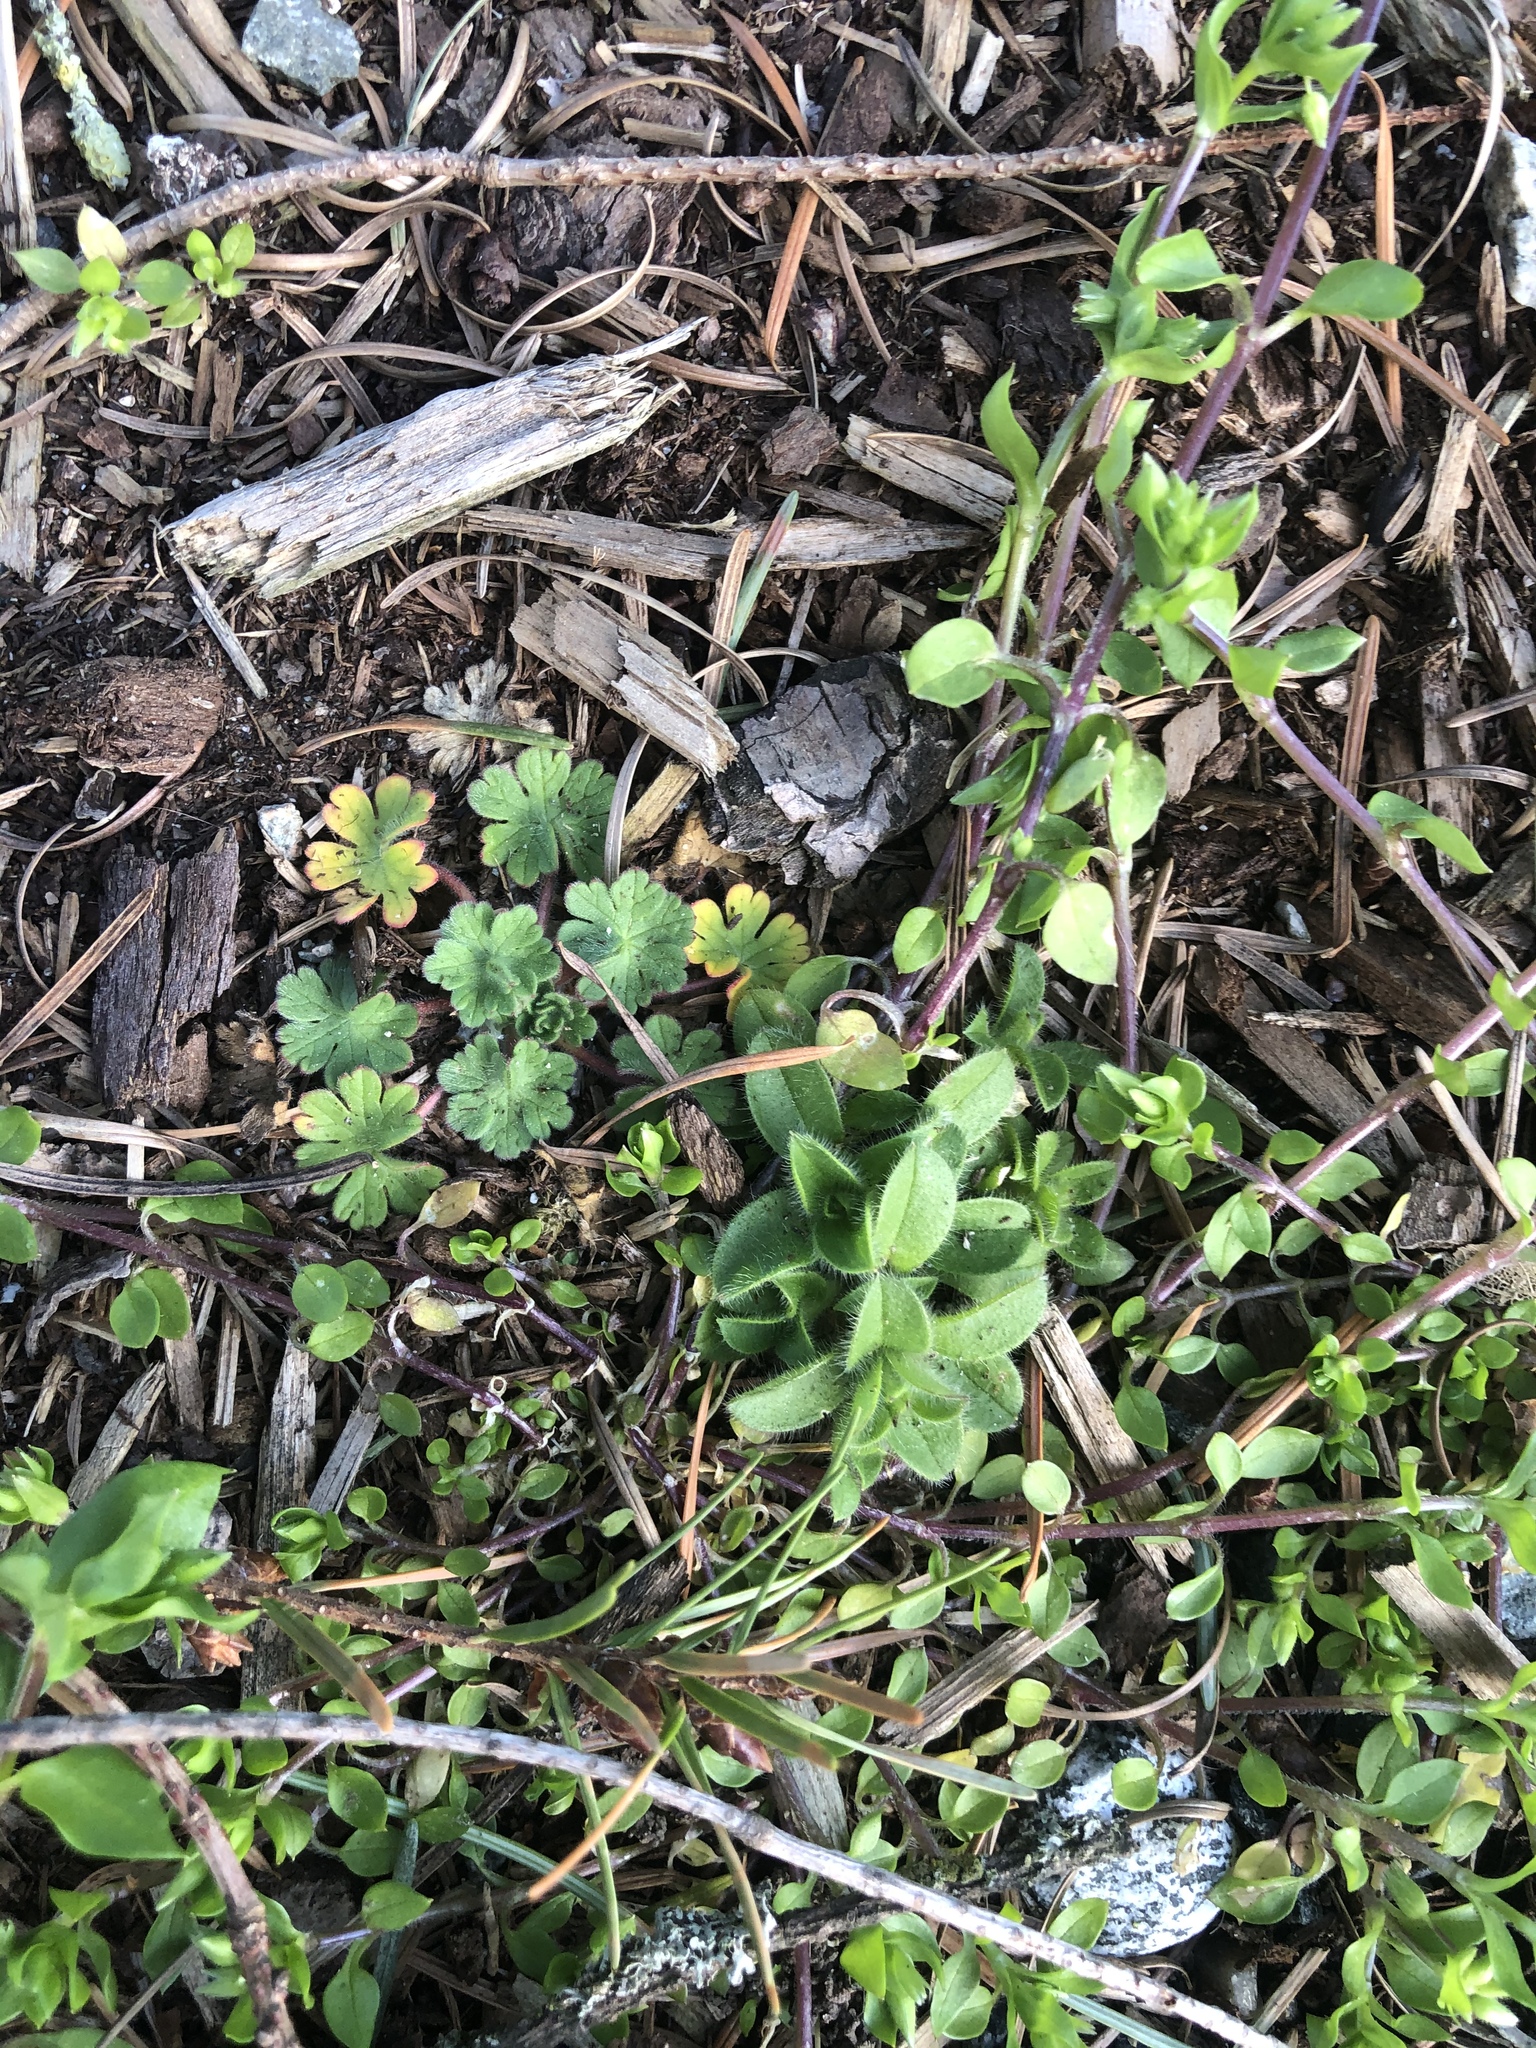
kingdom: Plantae
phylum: Tracheophyta
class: Magnoliopsida
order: Caryophyllales
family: Caryophyllaceae
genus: Cerastium
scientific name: Cerastium glomeratum
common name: Sticky chickweed
